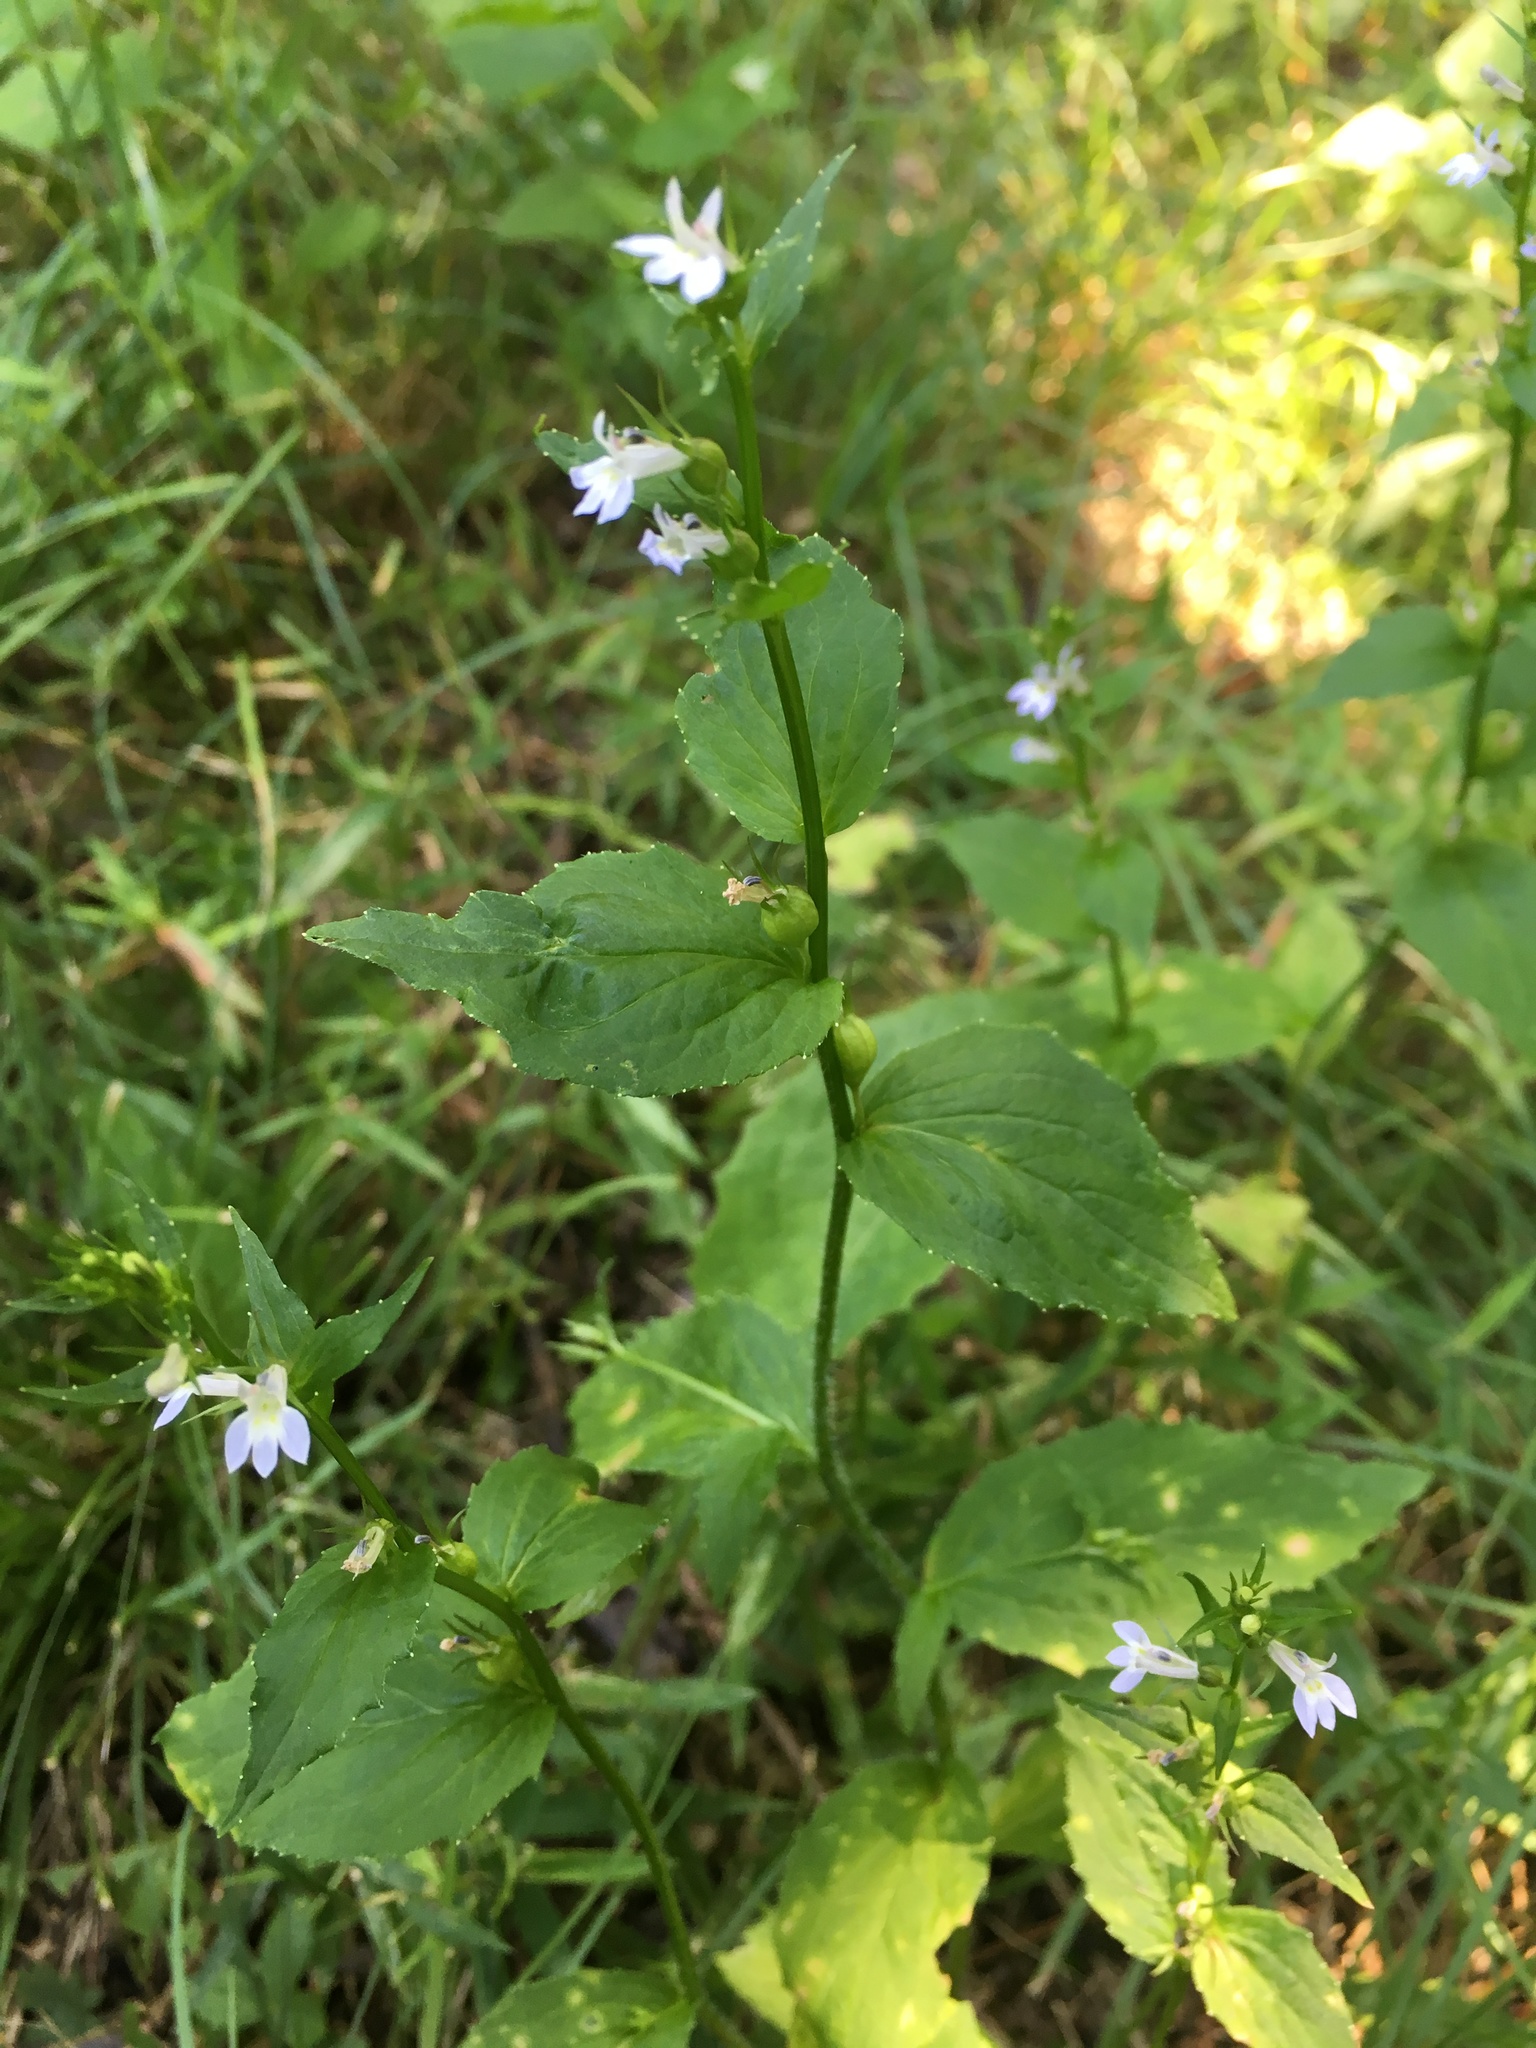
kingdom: Plantae
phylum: Tracheophyta
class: Magnoliopsida
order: Asterales
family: Campanulaceae
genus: Lobelia
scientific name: Lobelia inflata
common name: Indian tobacco
